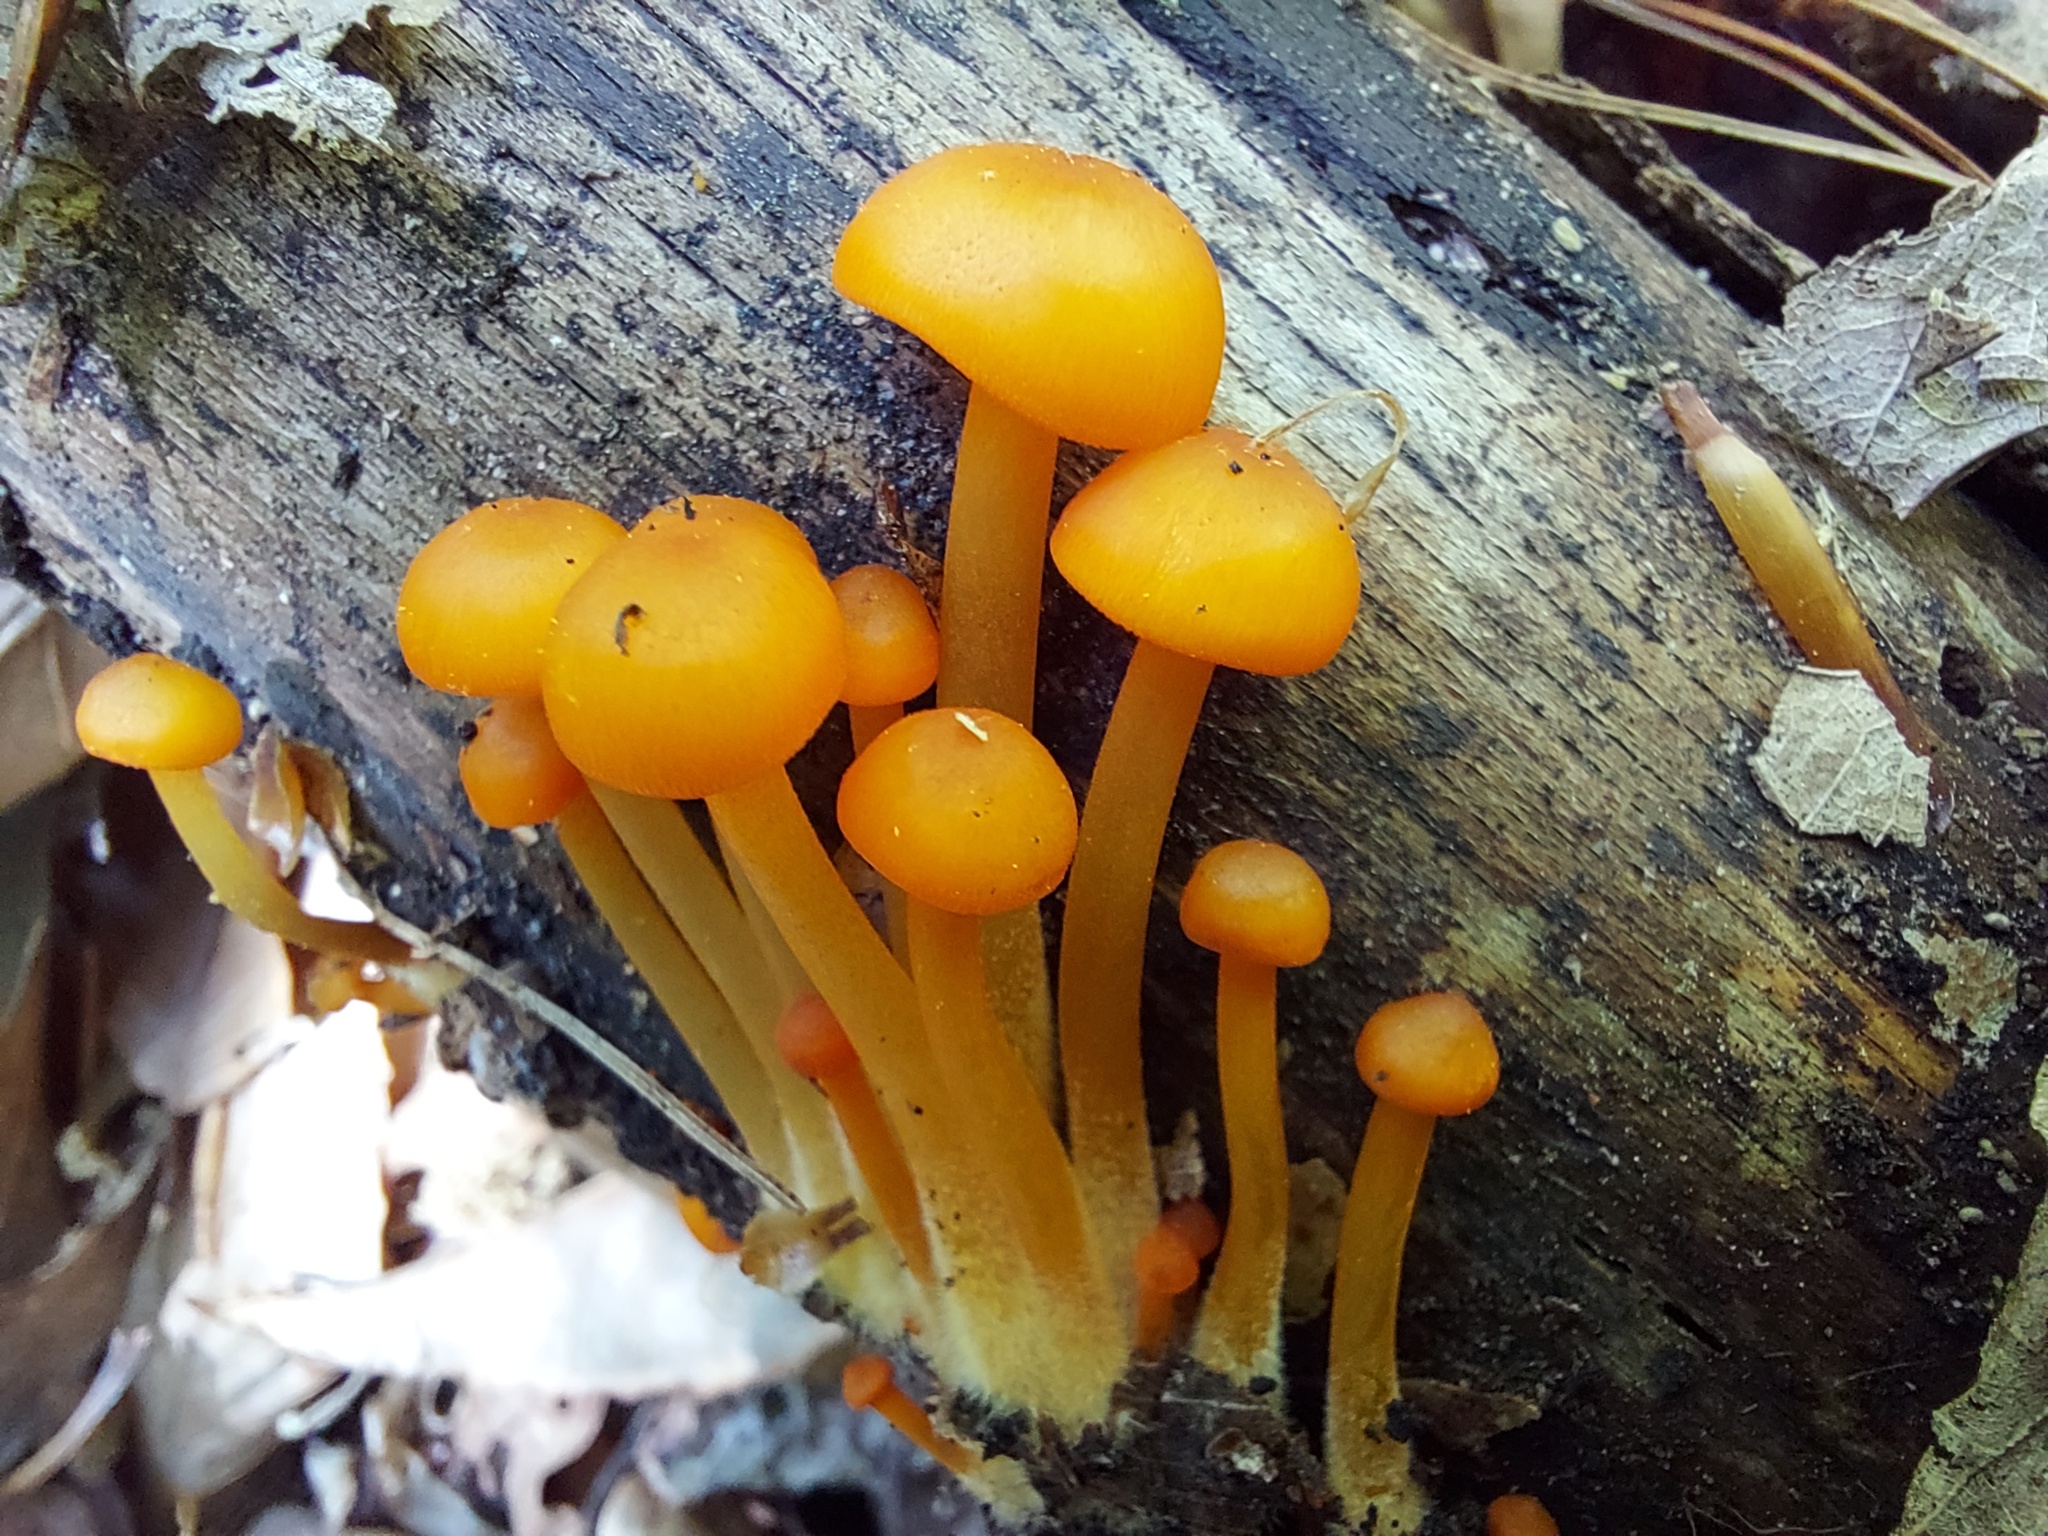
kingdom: Fungi
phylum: Basidiomycota
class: Agaricomycetes
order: Agaricales
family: Mycenaceae
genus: Mycena
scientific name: Mycena leaiana
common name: Orange mycena
